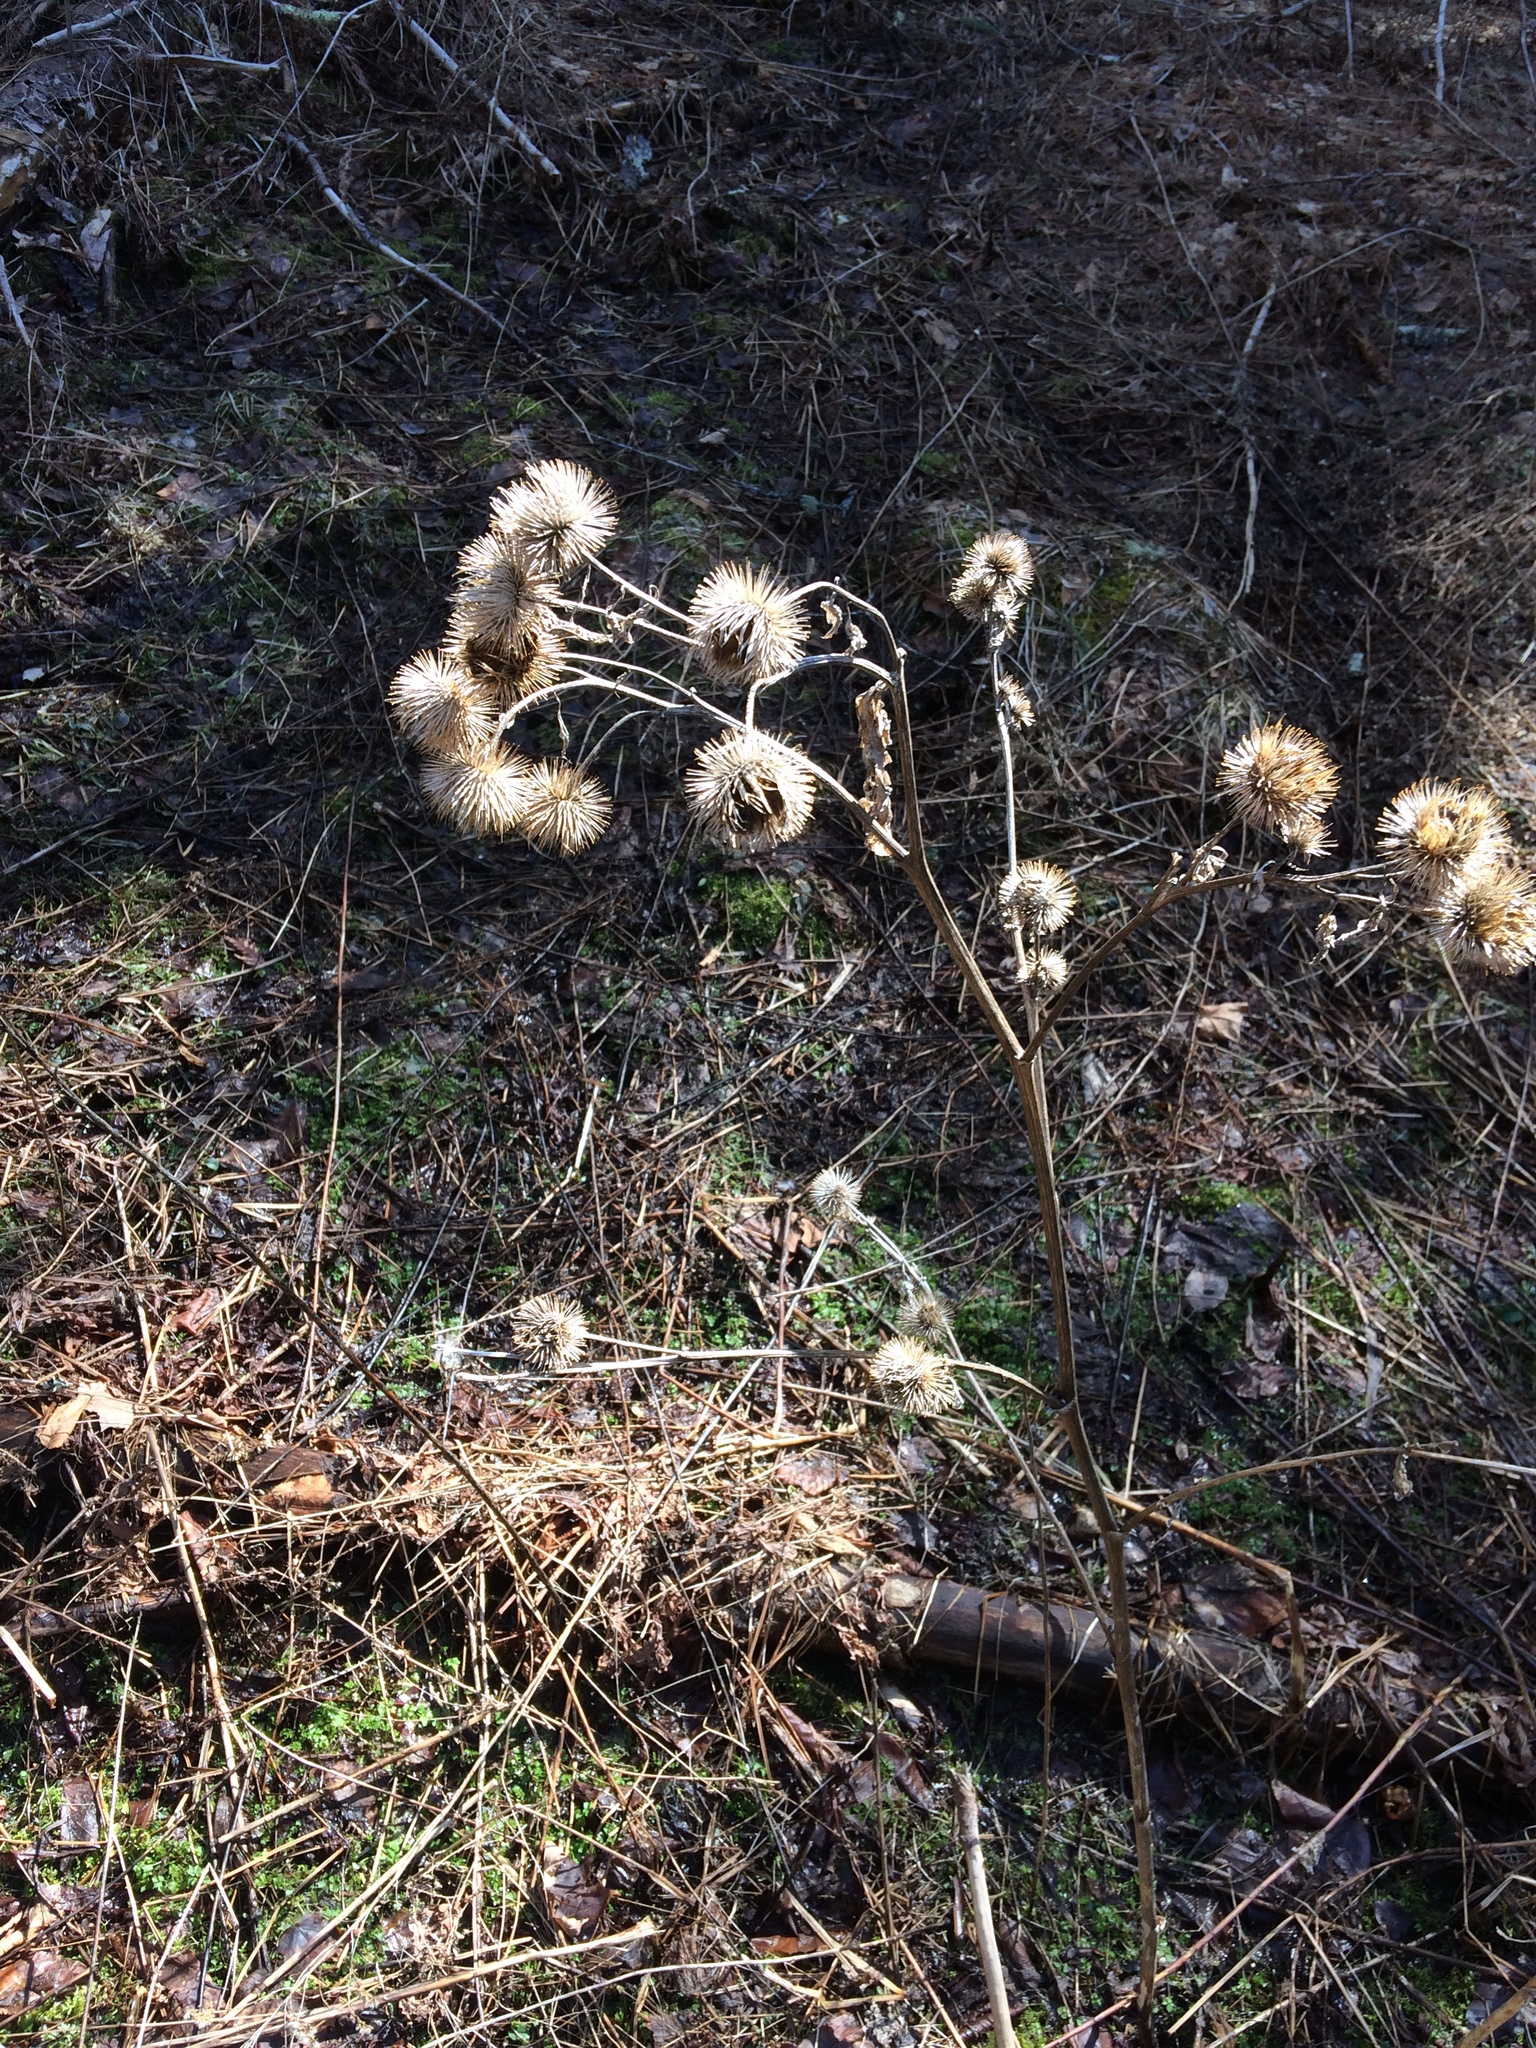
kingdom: Plantae
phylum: Tracheophyta
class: Magnoliopsida
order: Asterales
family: Asteraceae
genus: Arctium
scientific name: Arctium lappa
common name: Greater burdock
